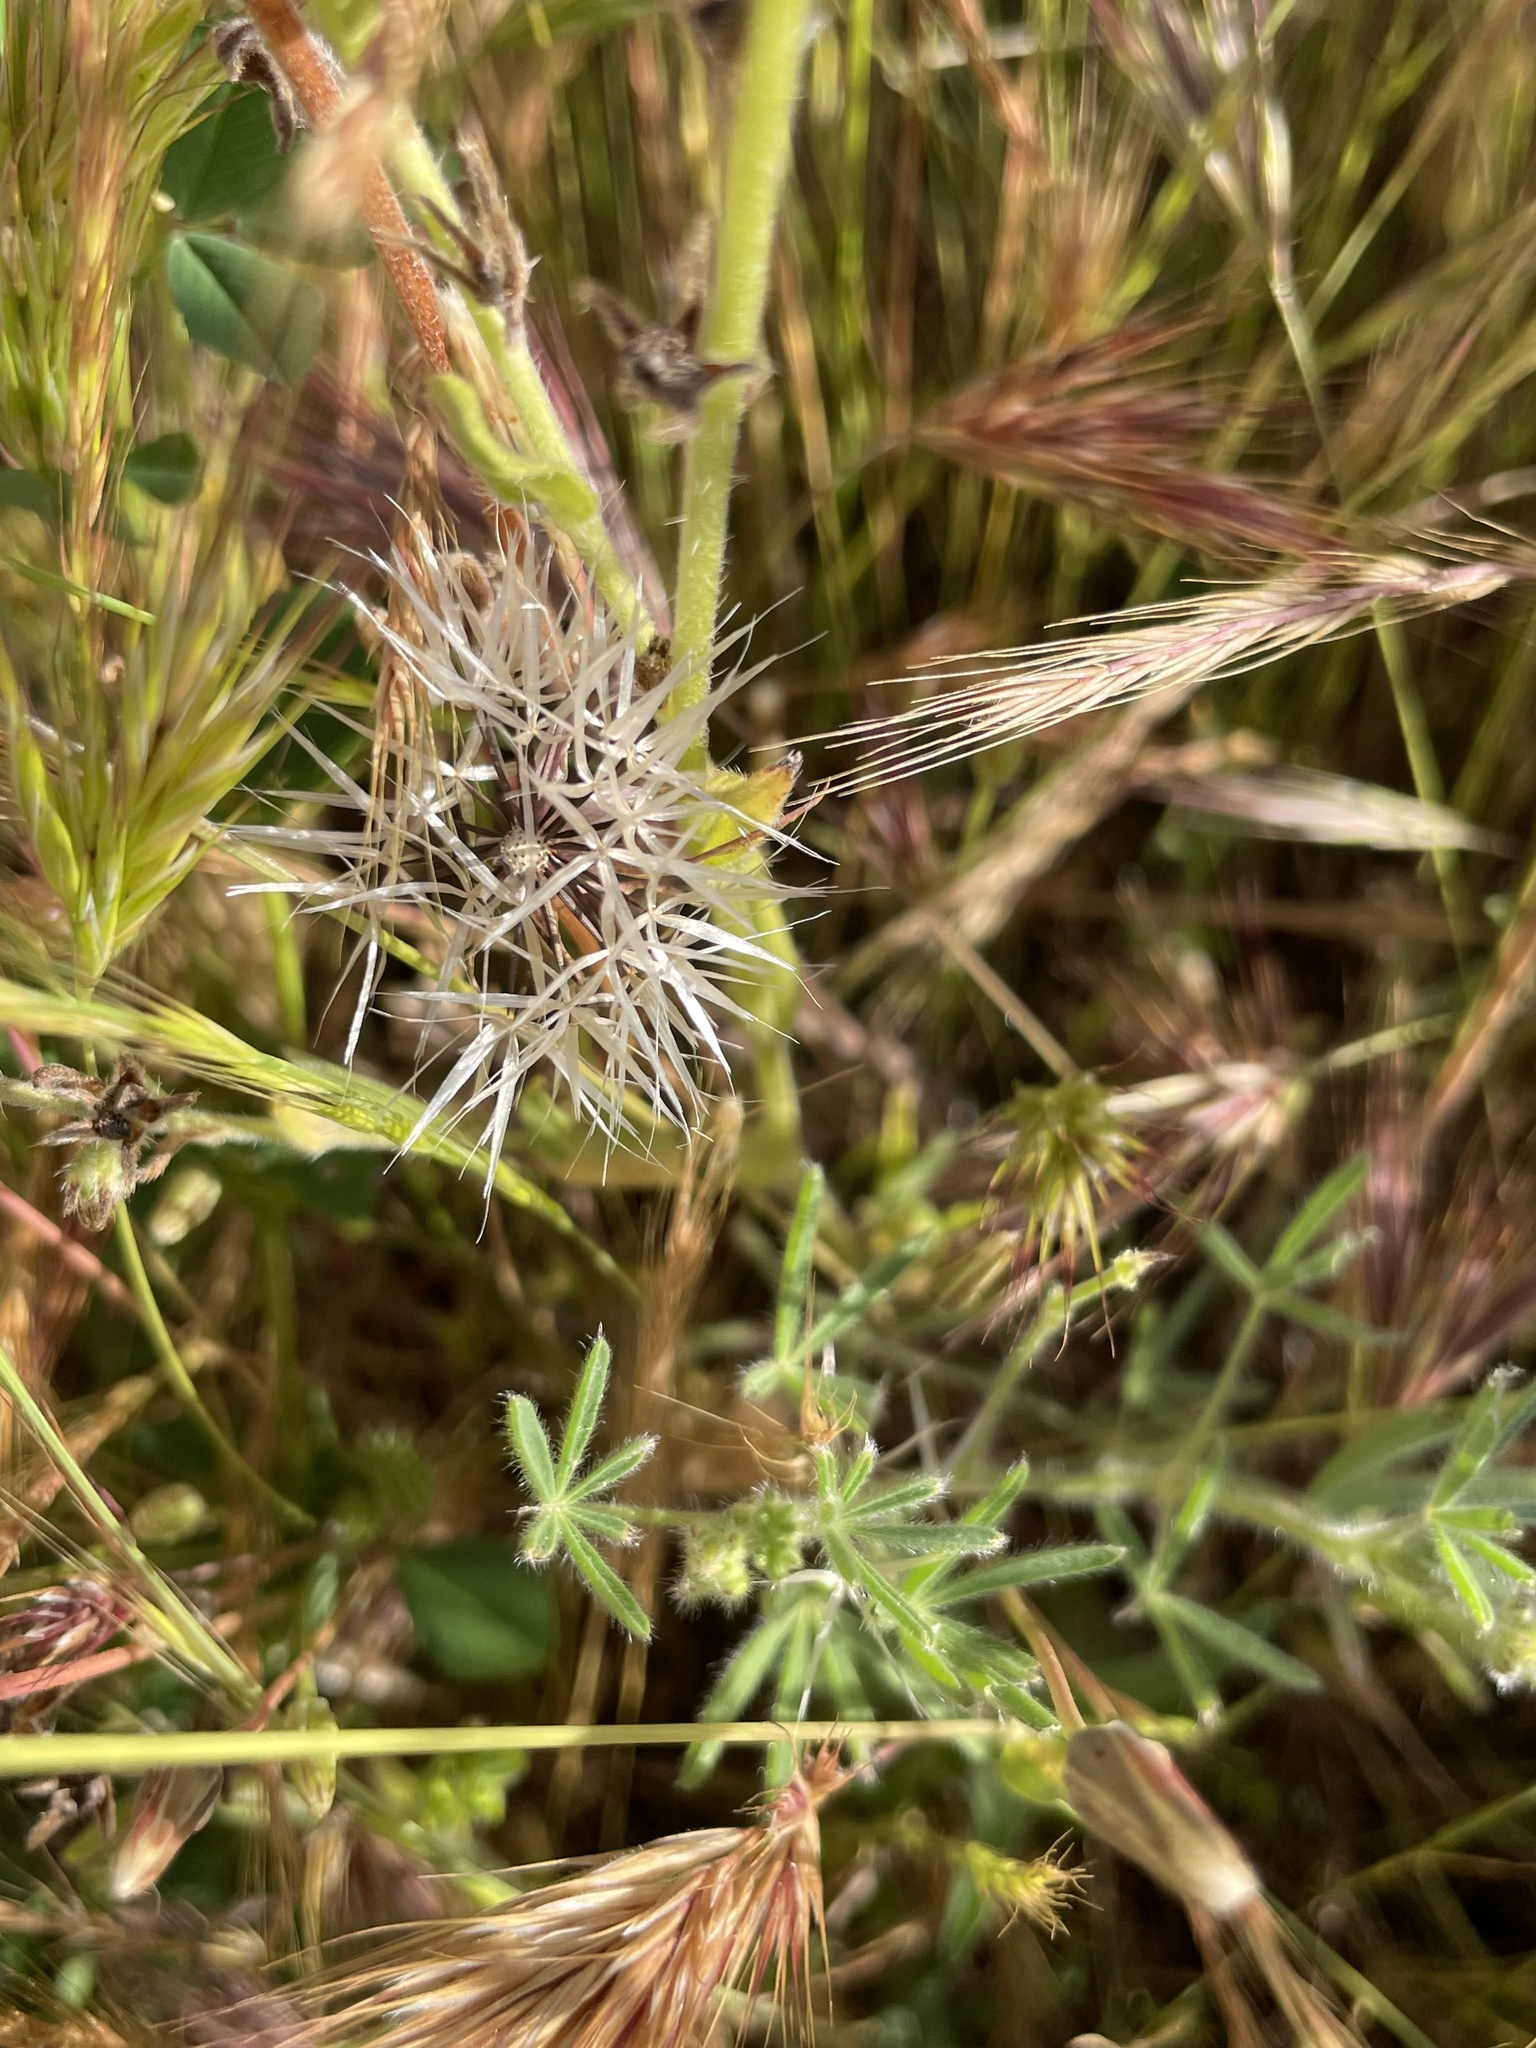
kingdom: Plantae
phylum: Tracheophyta
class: Magnoliopsida
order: Asterales
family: Asteraceae
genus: Microseris
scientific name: Microseris lindleyi
